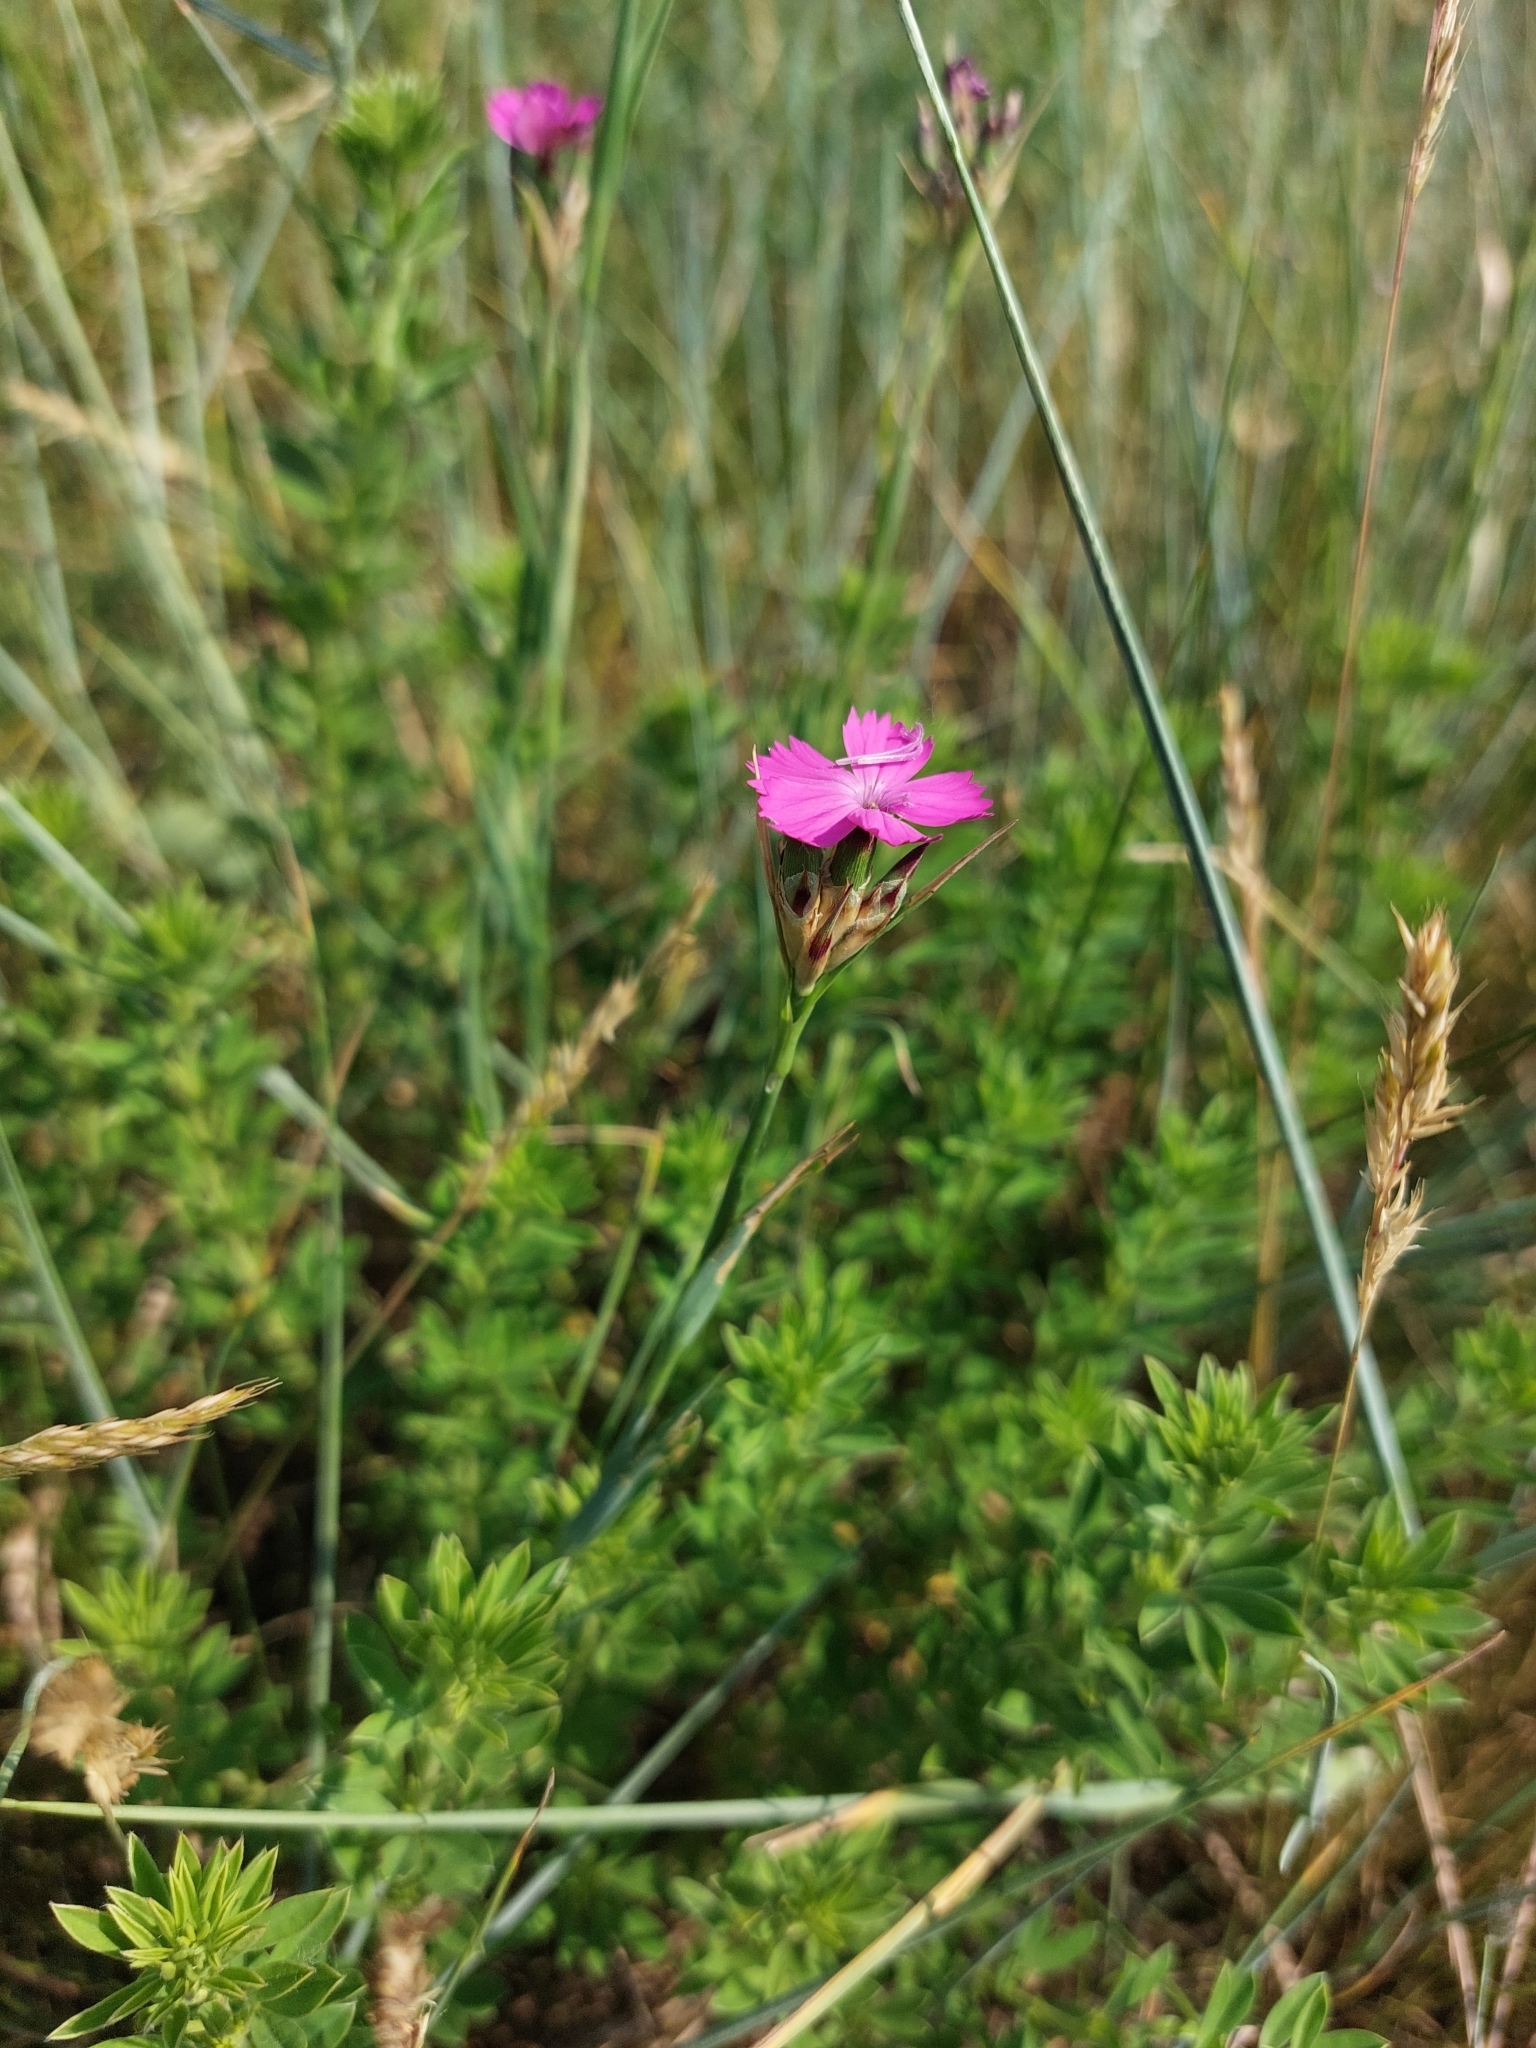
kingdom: Plantae
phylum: Tracheophyta
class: Magnoliopsida
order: Caryophyllales
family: Caryophyllaceae
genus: Dianthus
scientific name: Dianthus membranaceus
